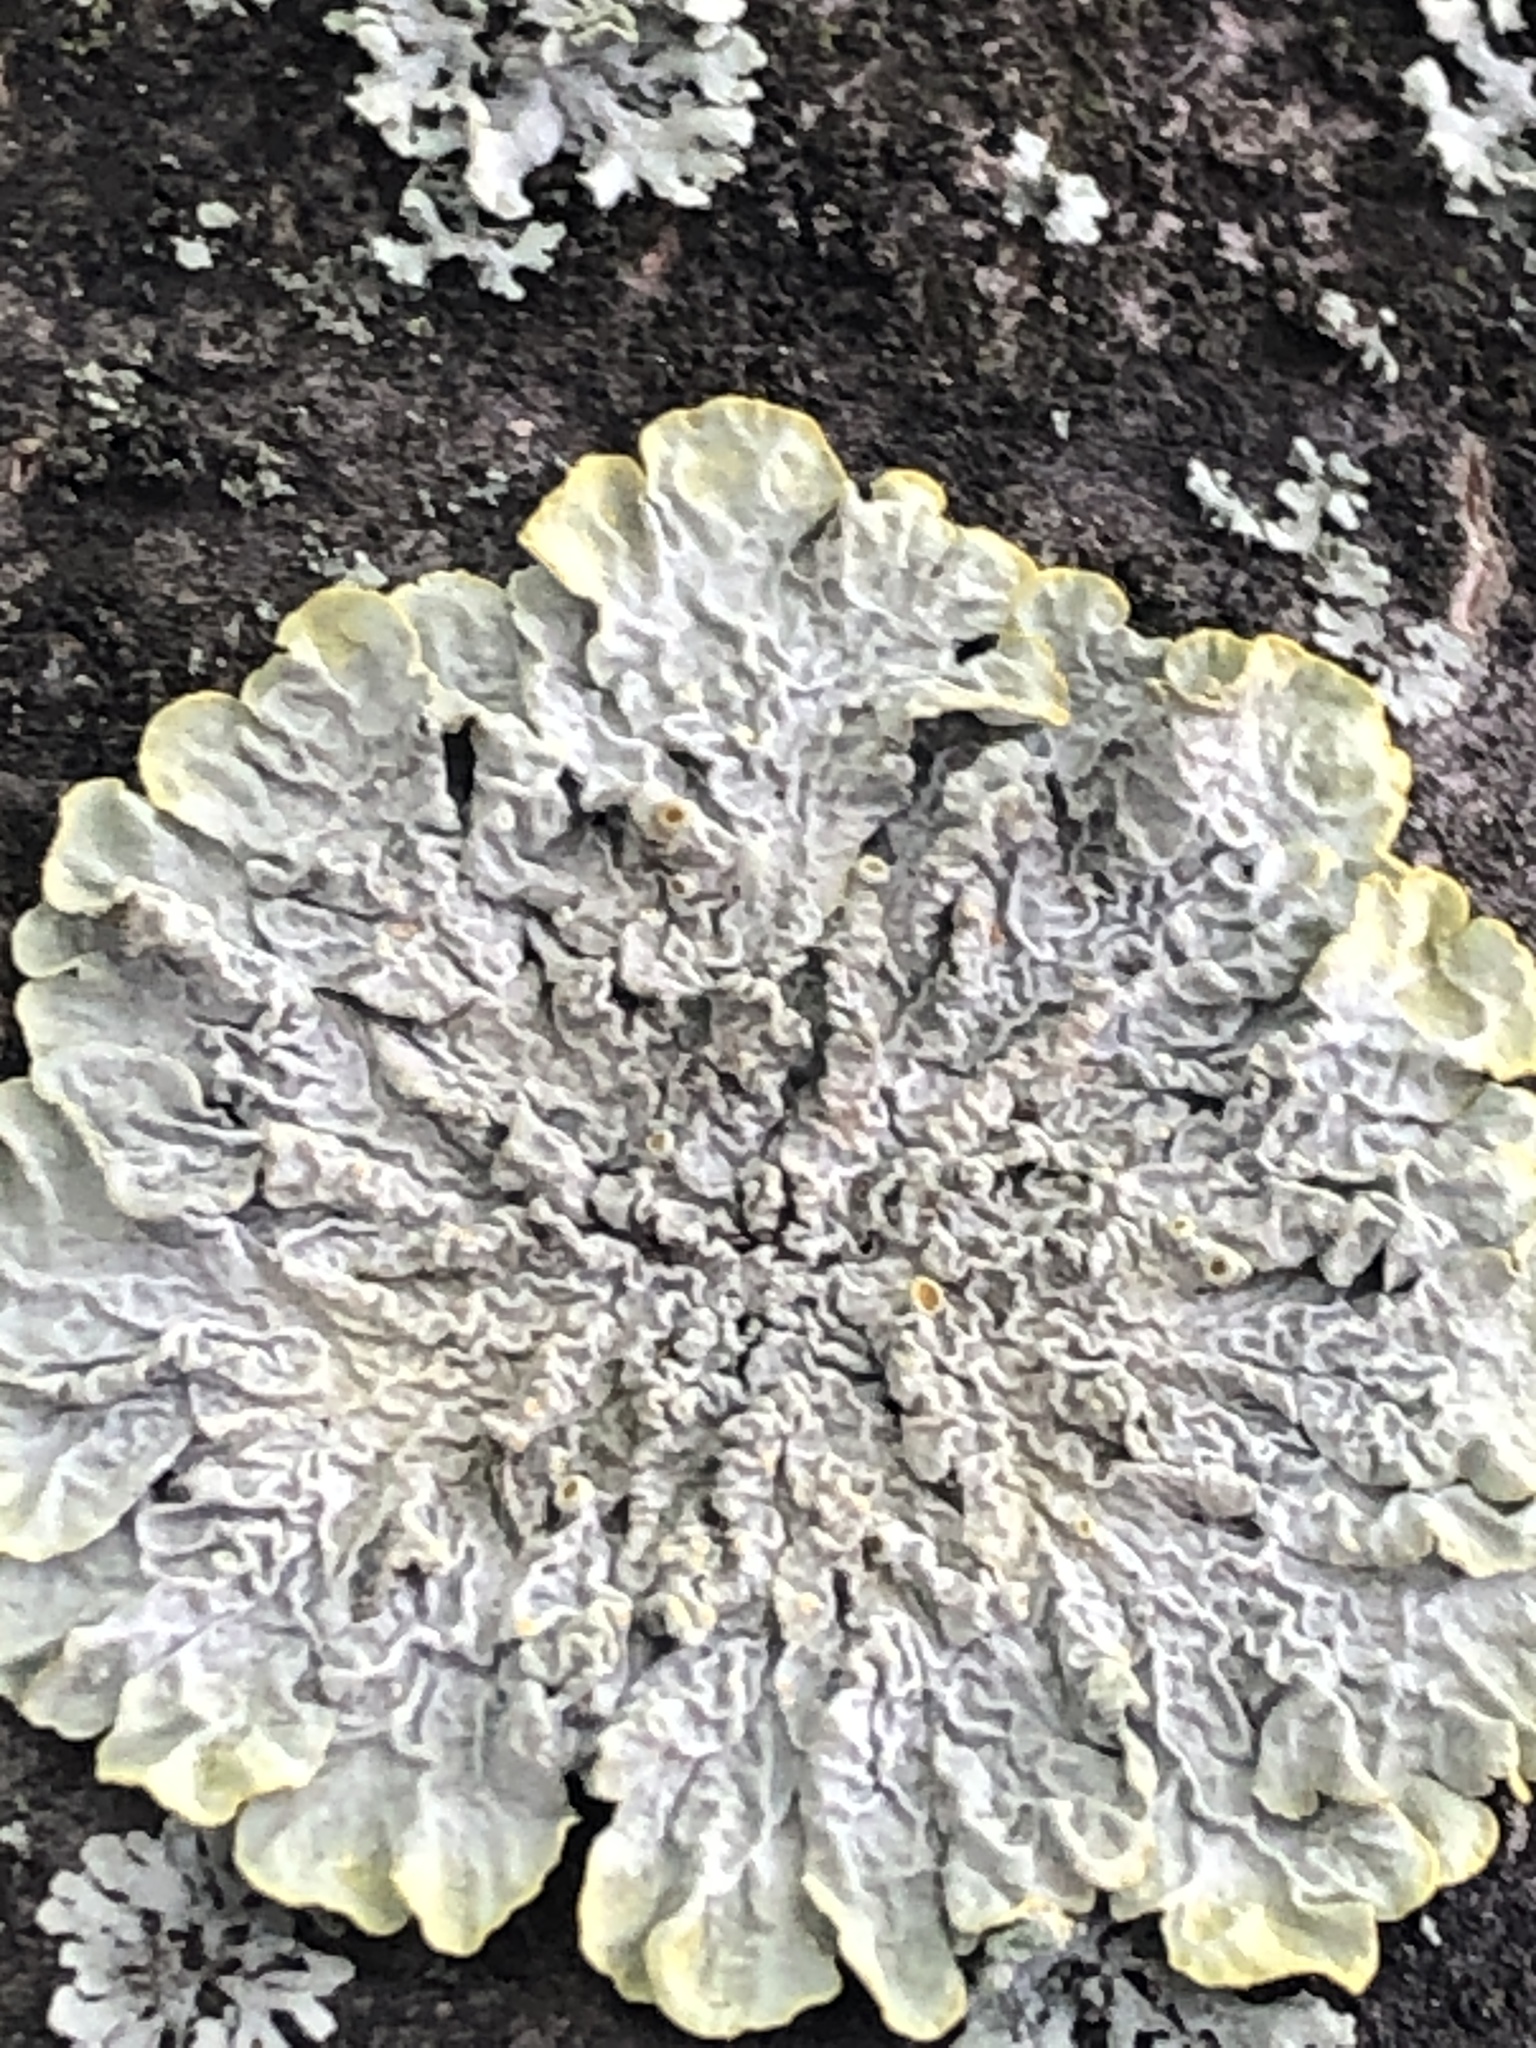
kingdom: Fungi
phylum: Ascomycota
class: Lecanoromycetes
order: Teloschistales
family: Teloschistaceae
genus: Xanthoria
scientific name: Xanthoria parietina
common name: Common orange lichen
